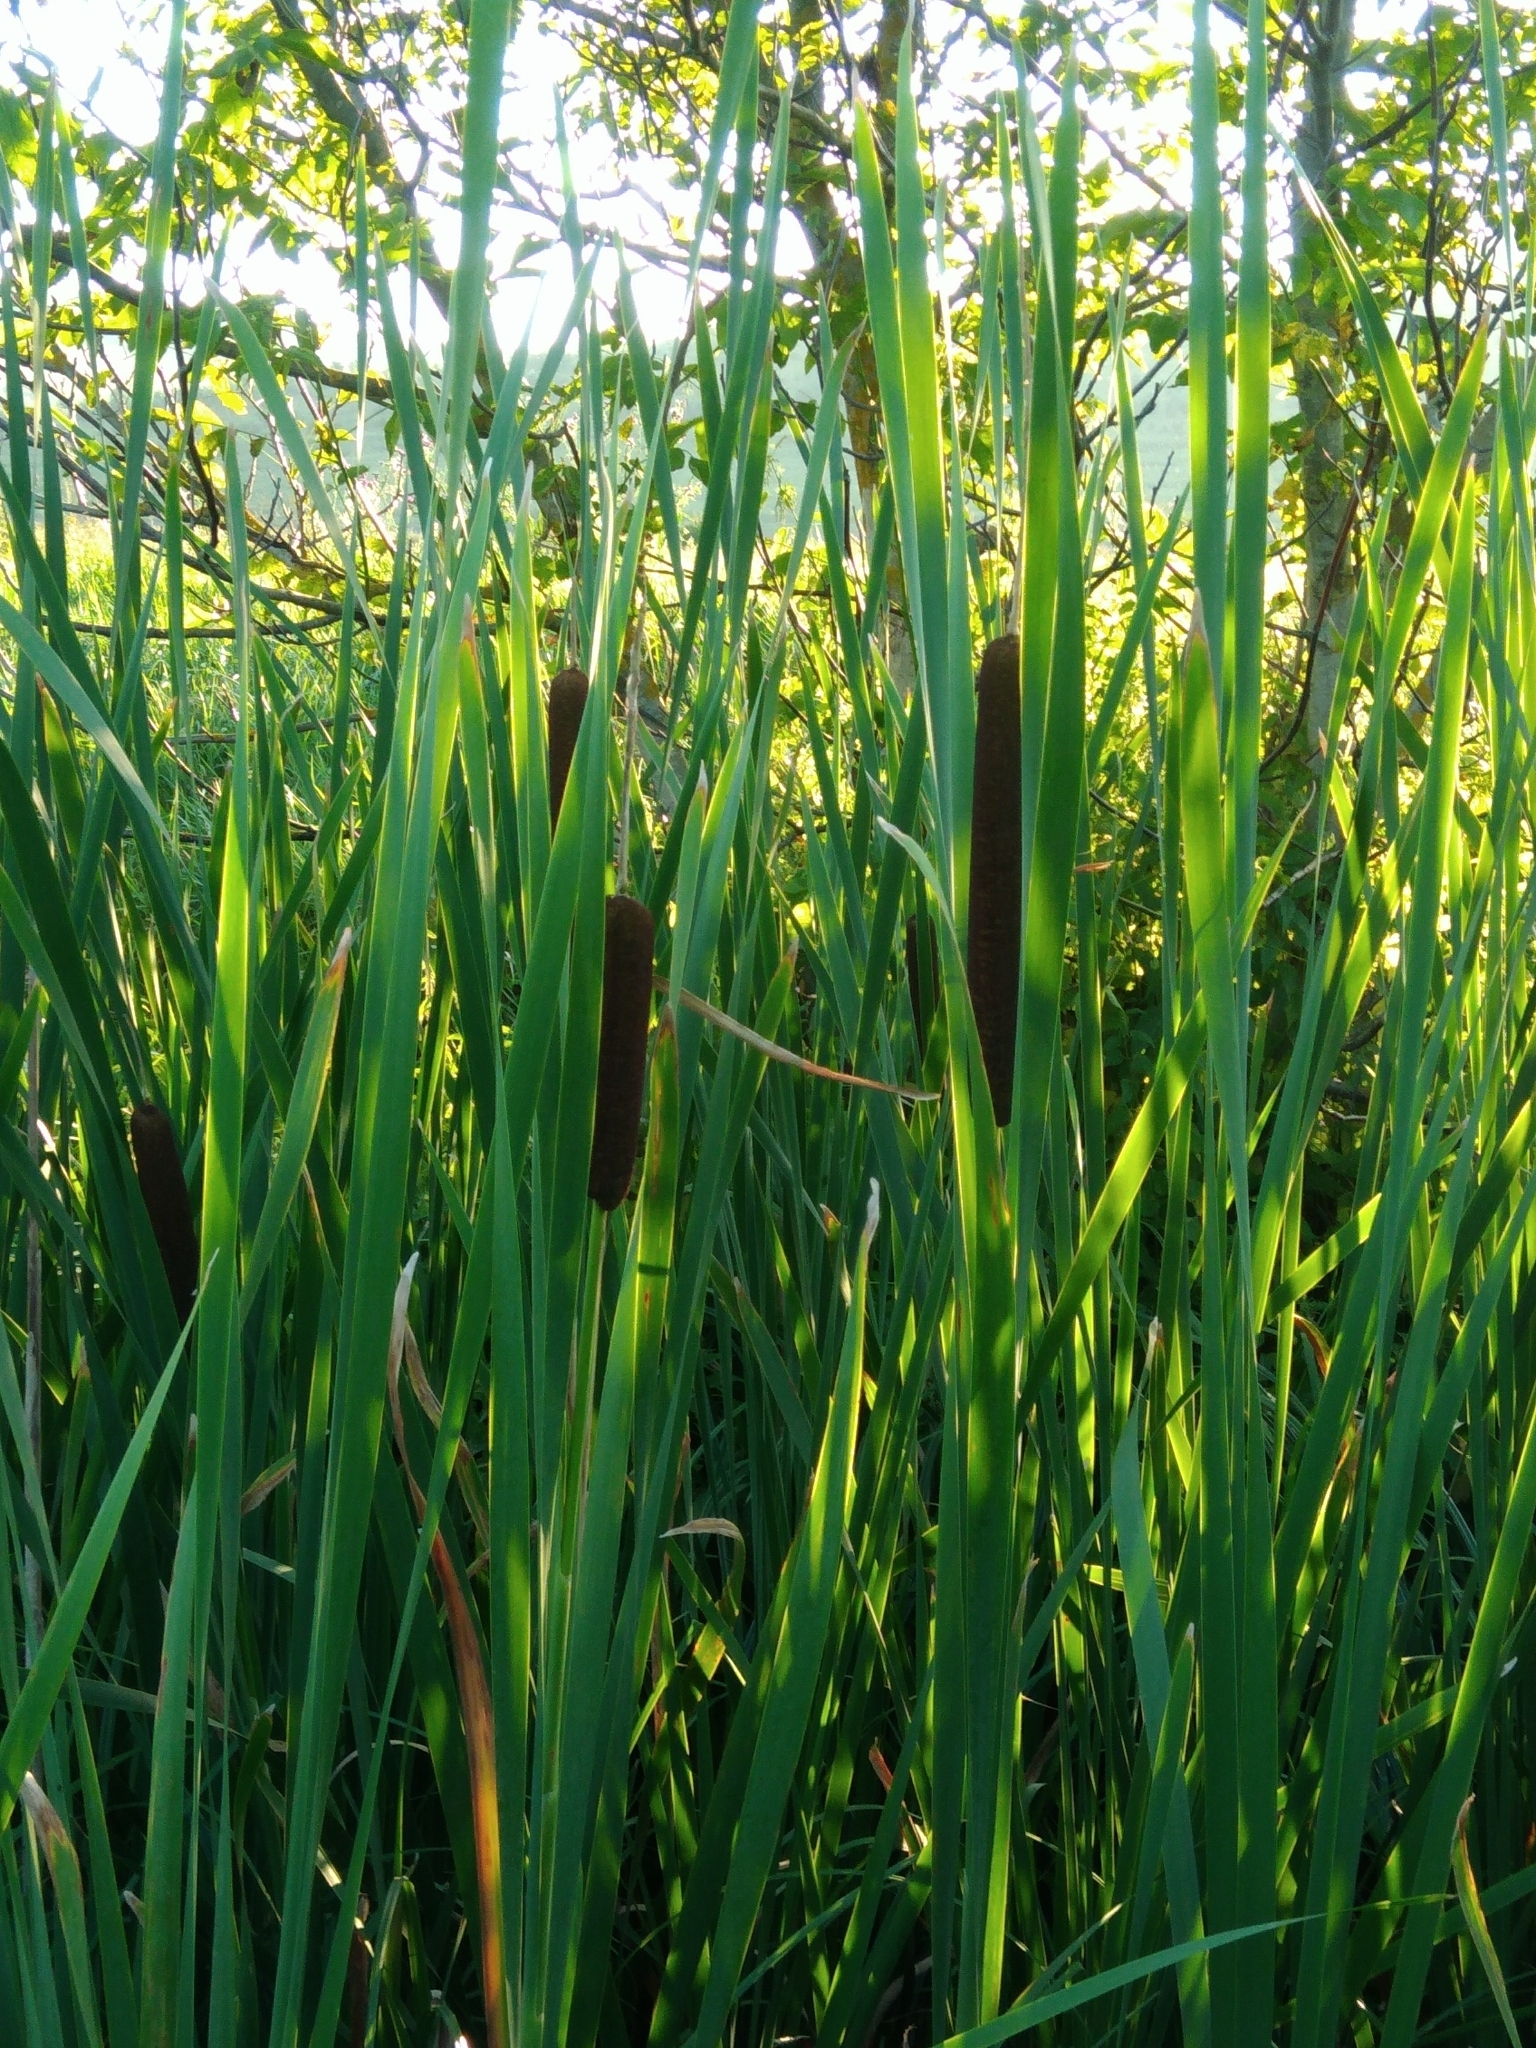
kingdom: Plantae
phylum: Tracheophyta
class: Liliopsida
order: Poales
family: Typhaceae
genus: Typha
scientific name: Typha latifolia
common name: Broadleaf cattail
